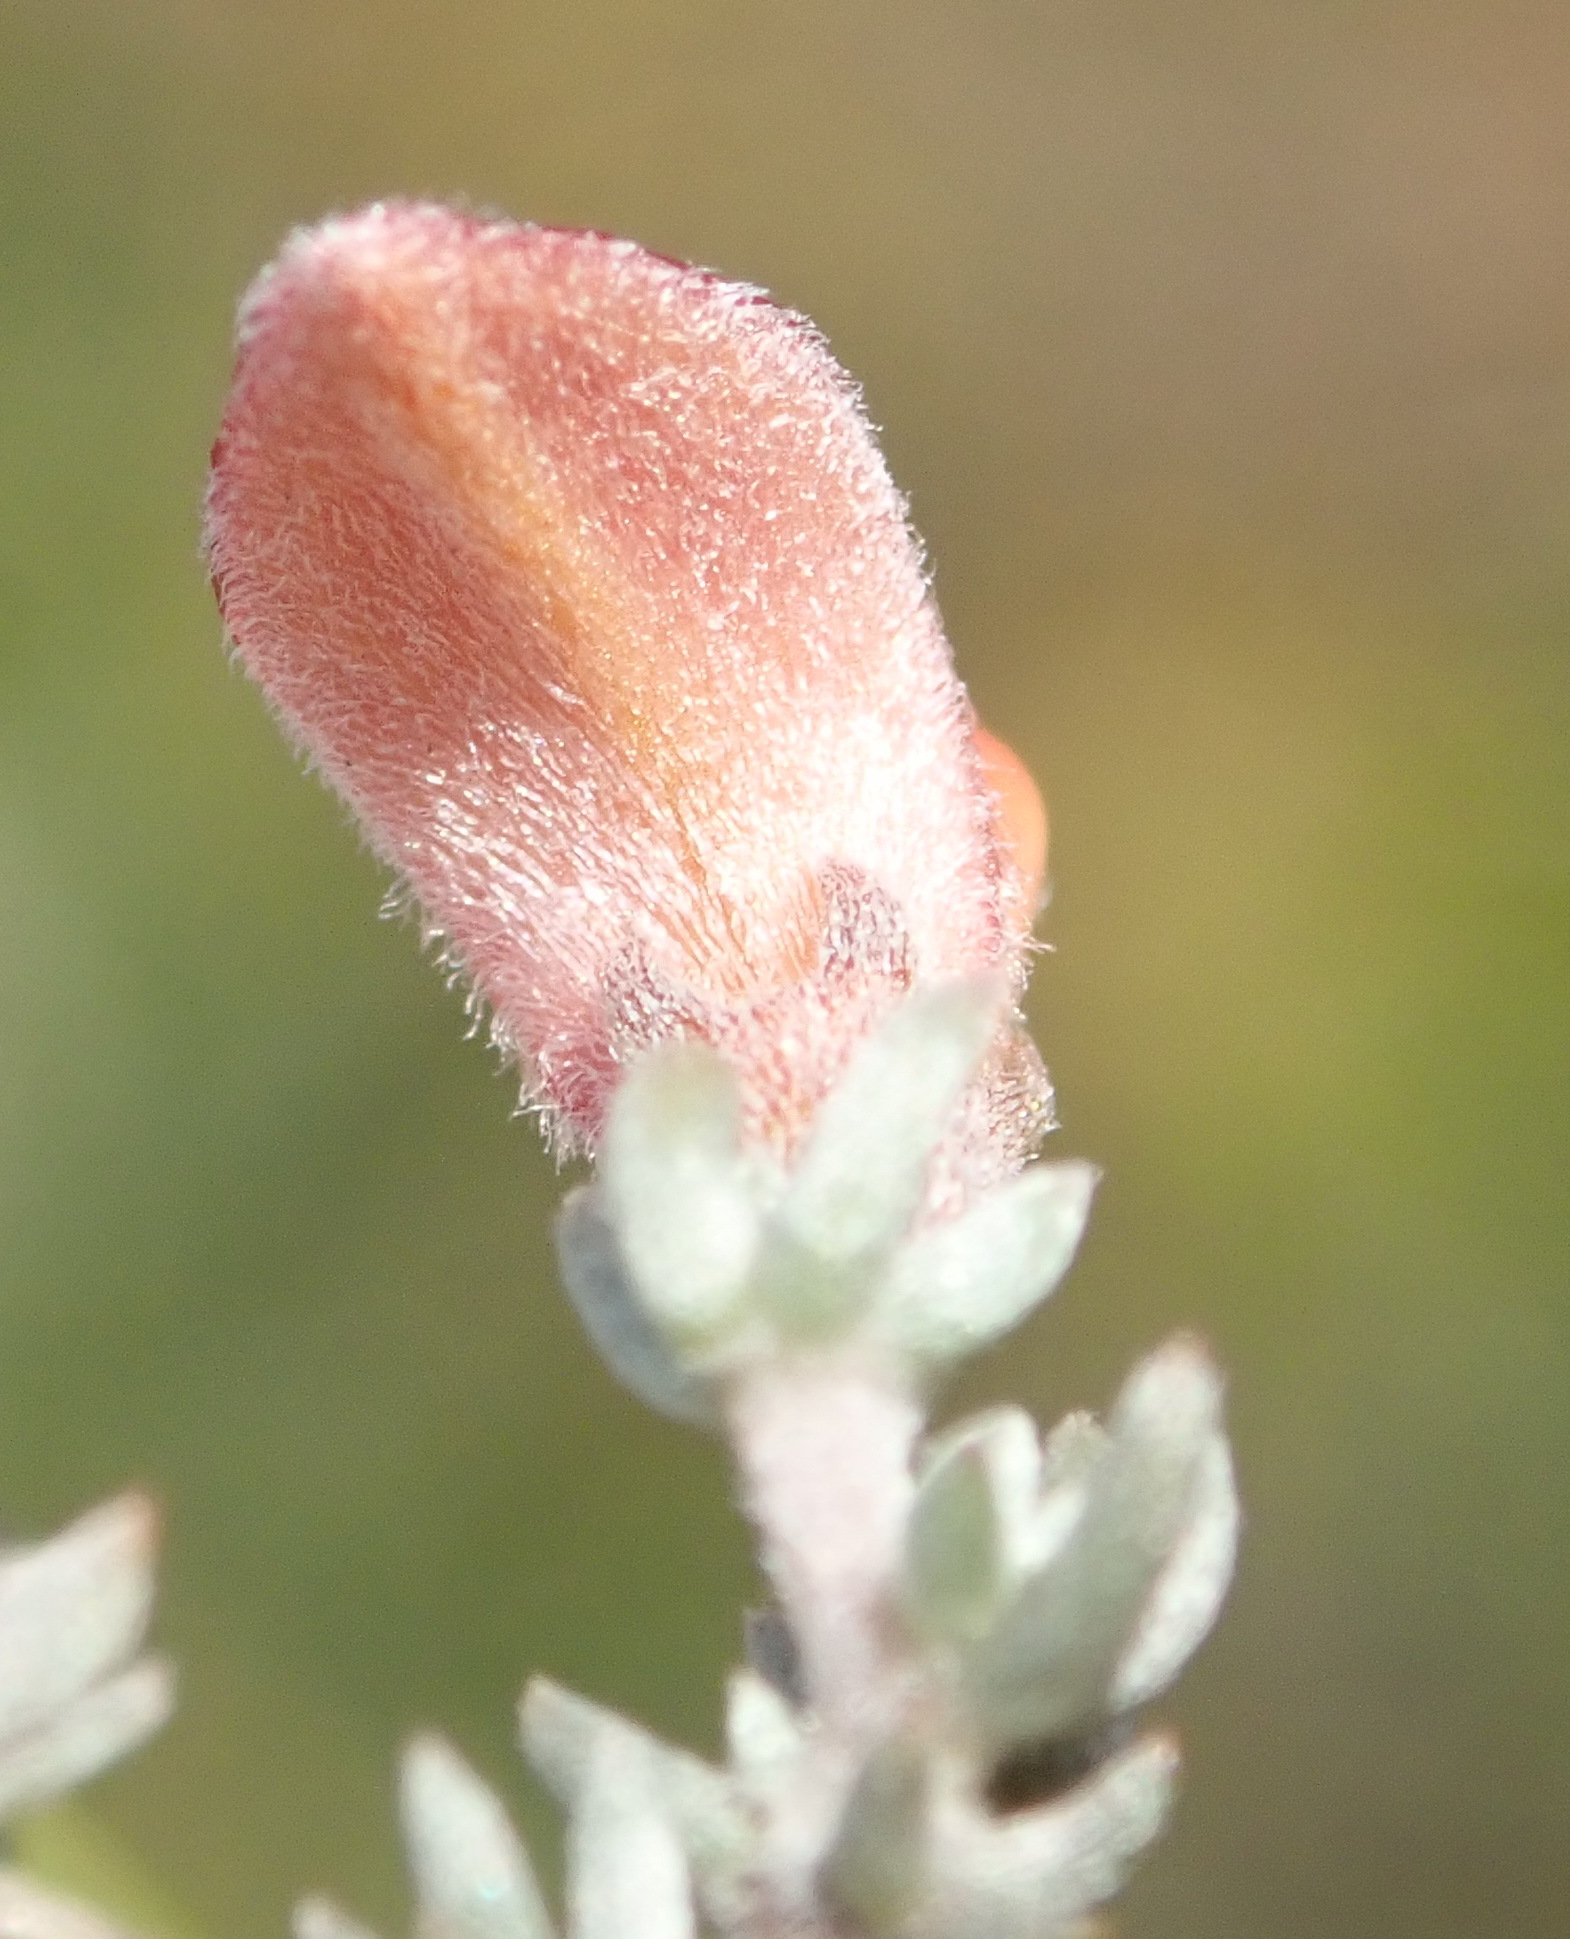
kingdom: Plantae
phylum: Tracheophyta
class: Magnoliopsida
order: Fabales
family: Fabaceae
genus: Aspalathus
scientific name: Aspalathus rubens
